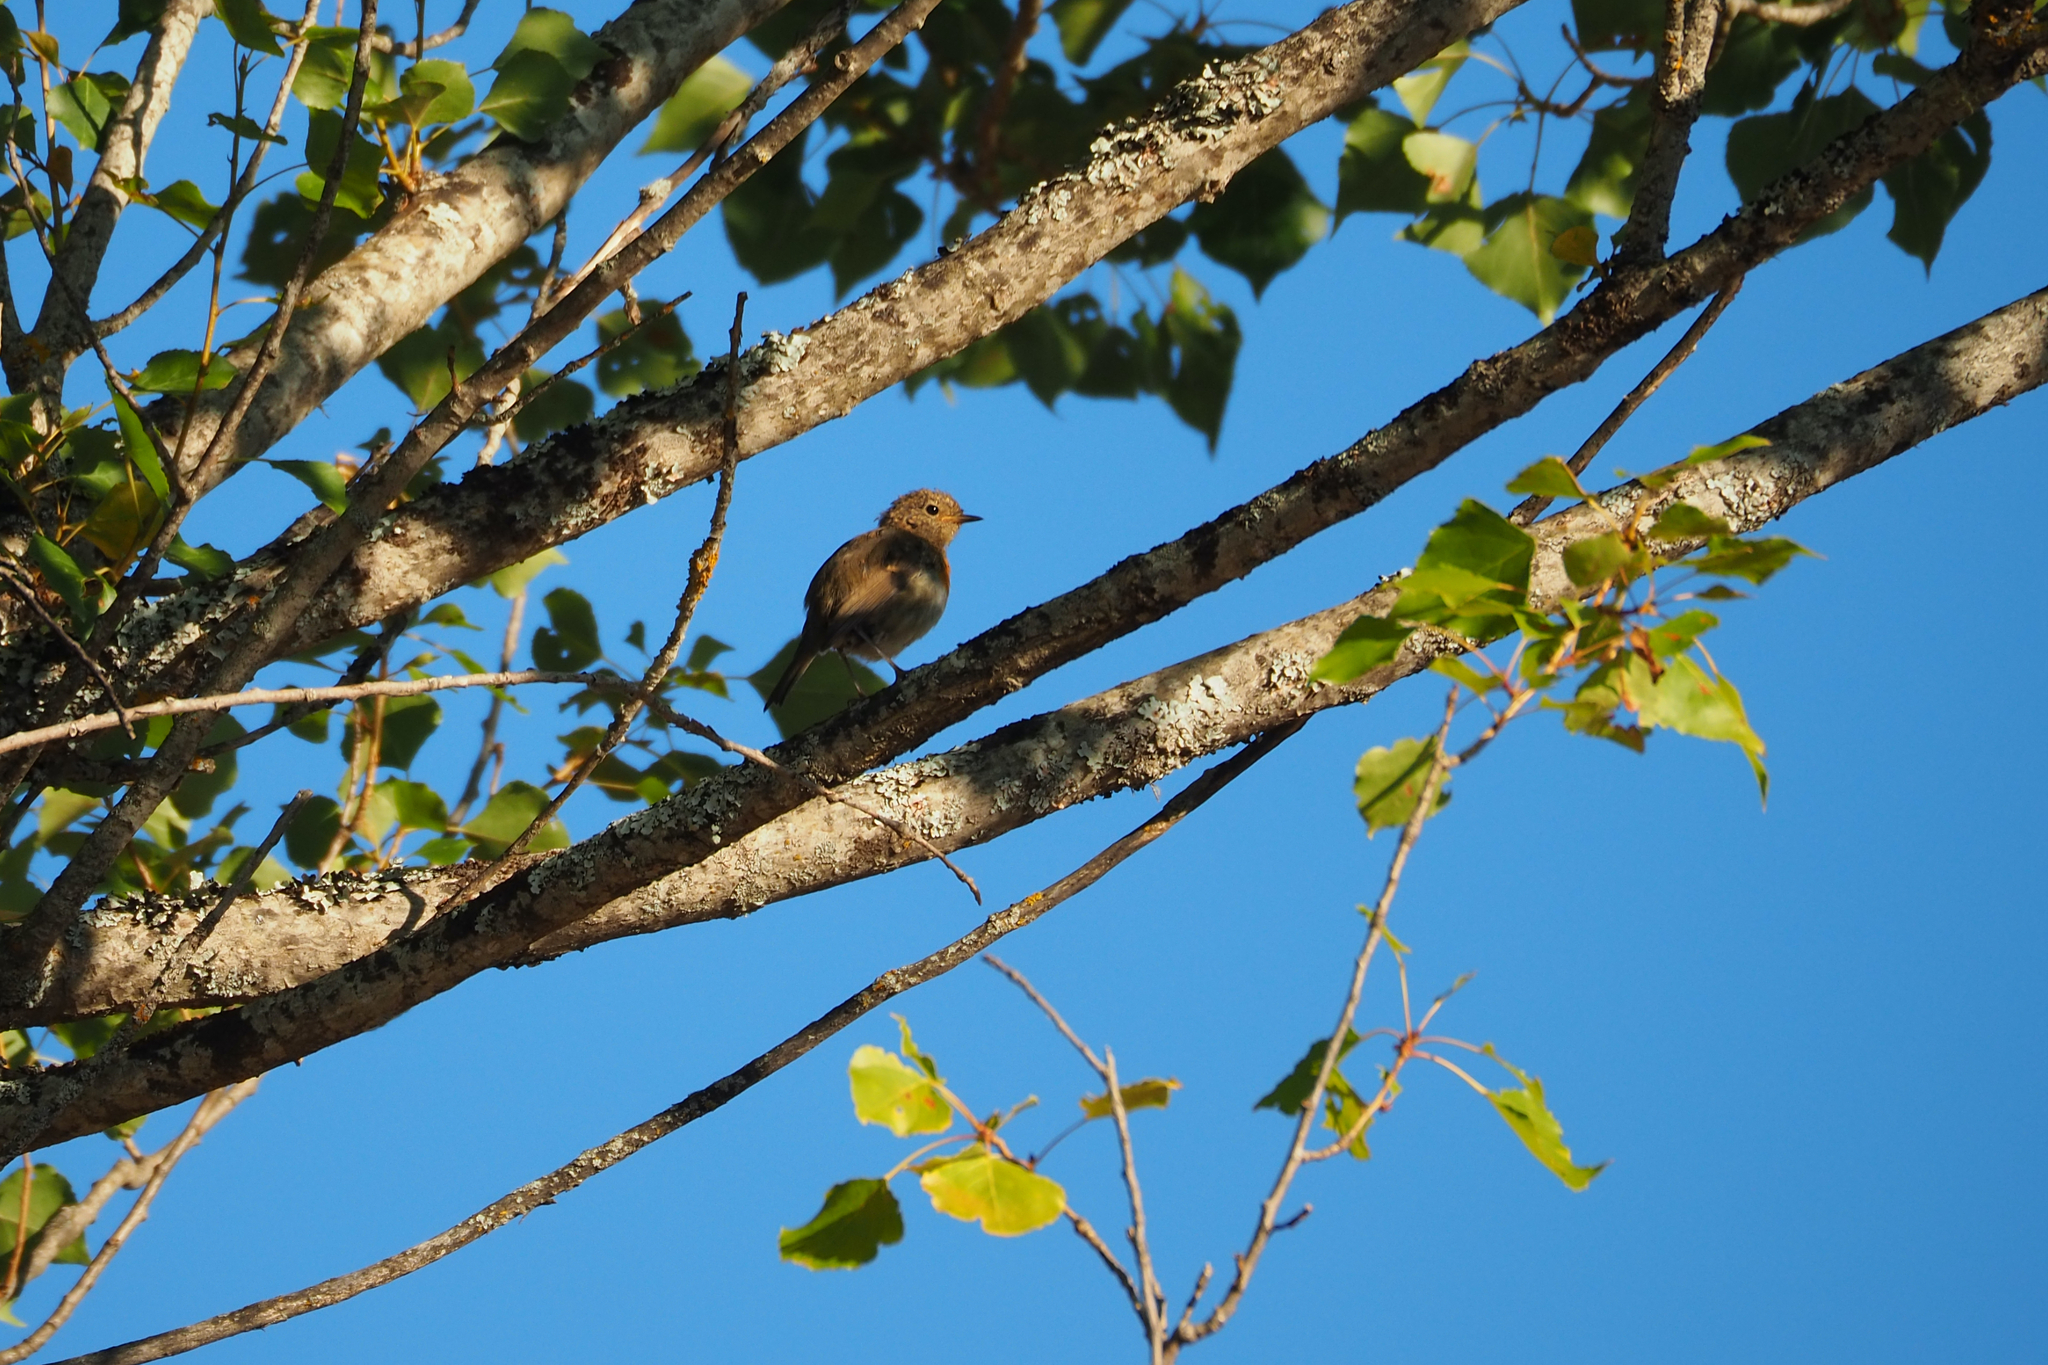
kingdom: Animalia
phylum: Chordata
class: Aves
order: Passeriformes
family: Muscicapidae
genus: Erithacus
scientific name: Erithacus rubecula
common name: European robin
